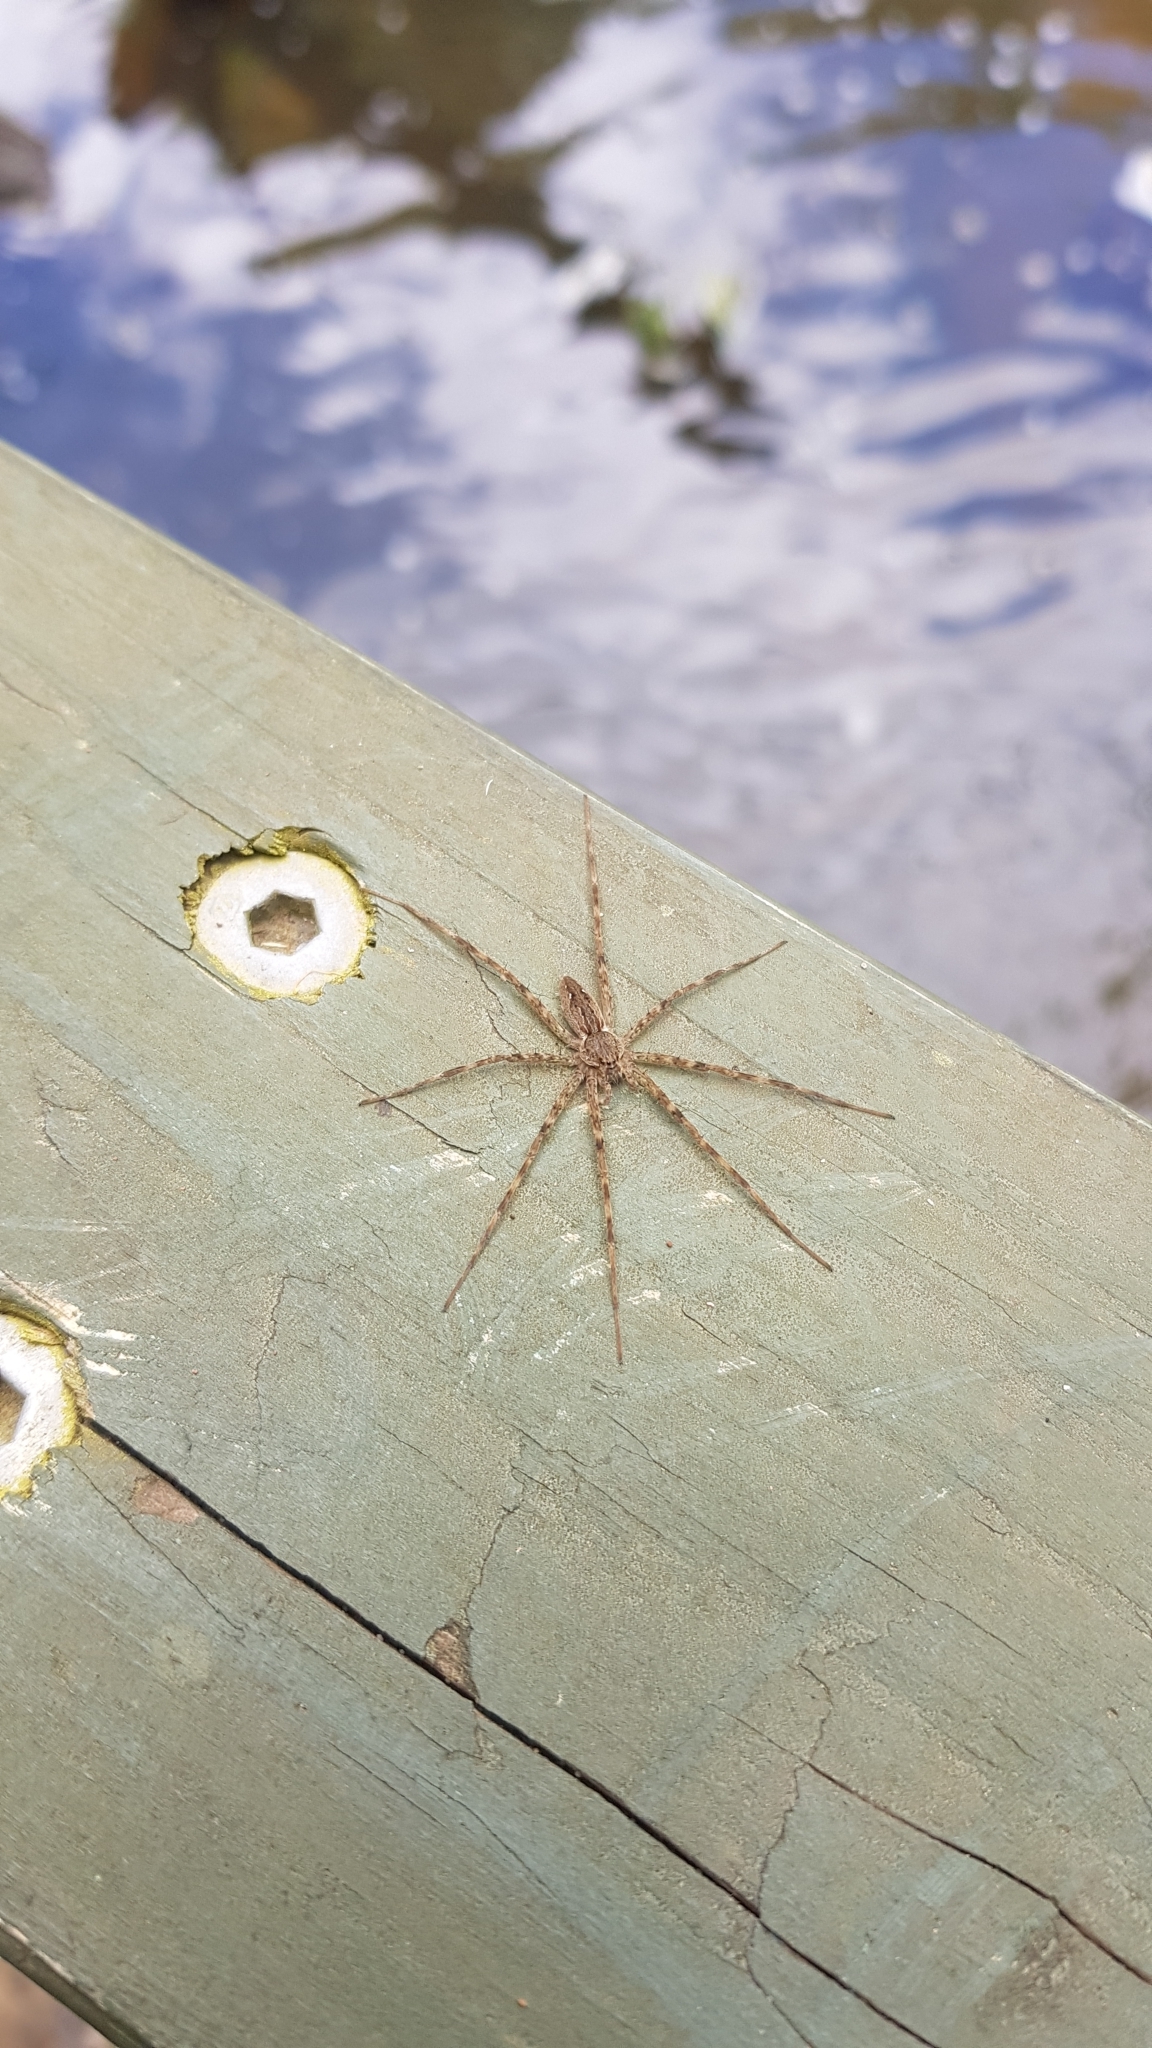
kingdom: Animalia
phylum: Arthropoda
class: Arachnida
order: Araneae
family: Pisauridae
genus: Megadolomedes
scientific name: Megadolomedes australianus
